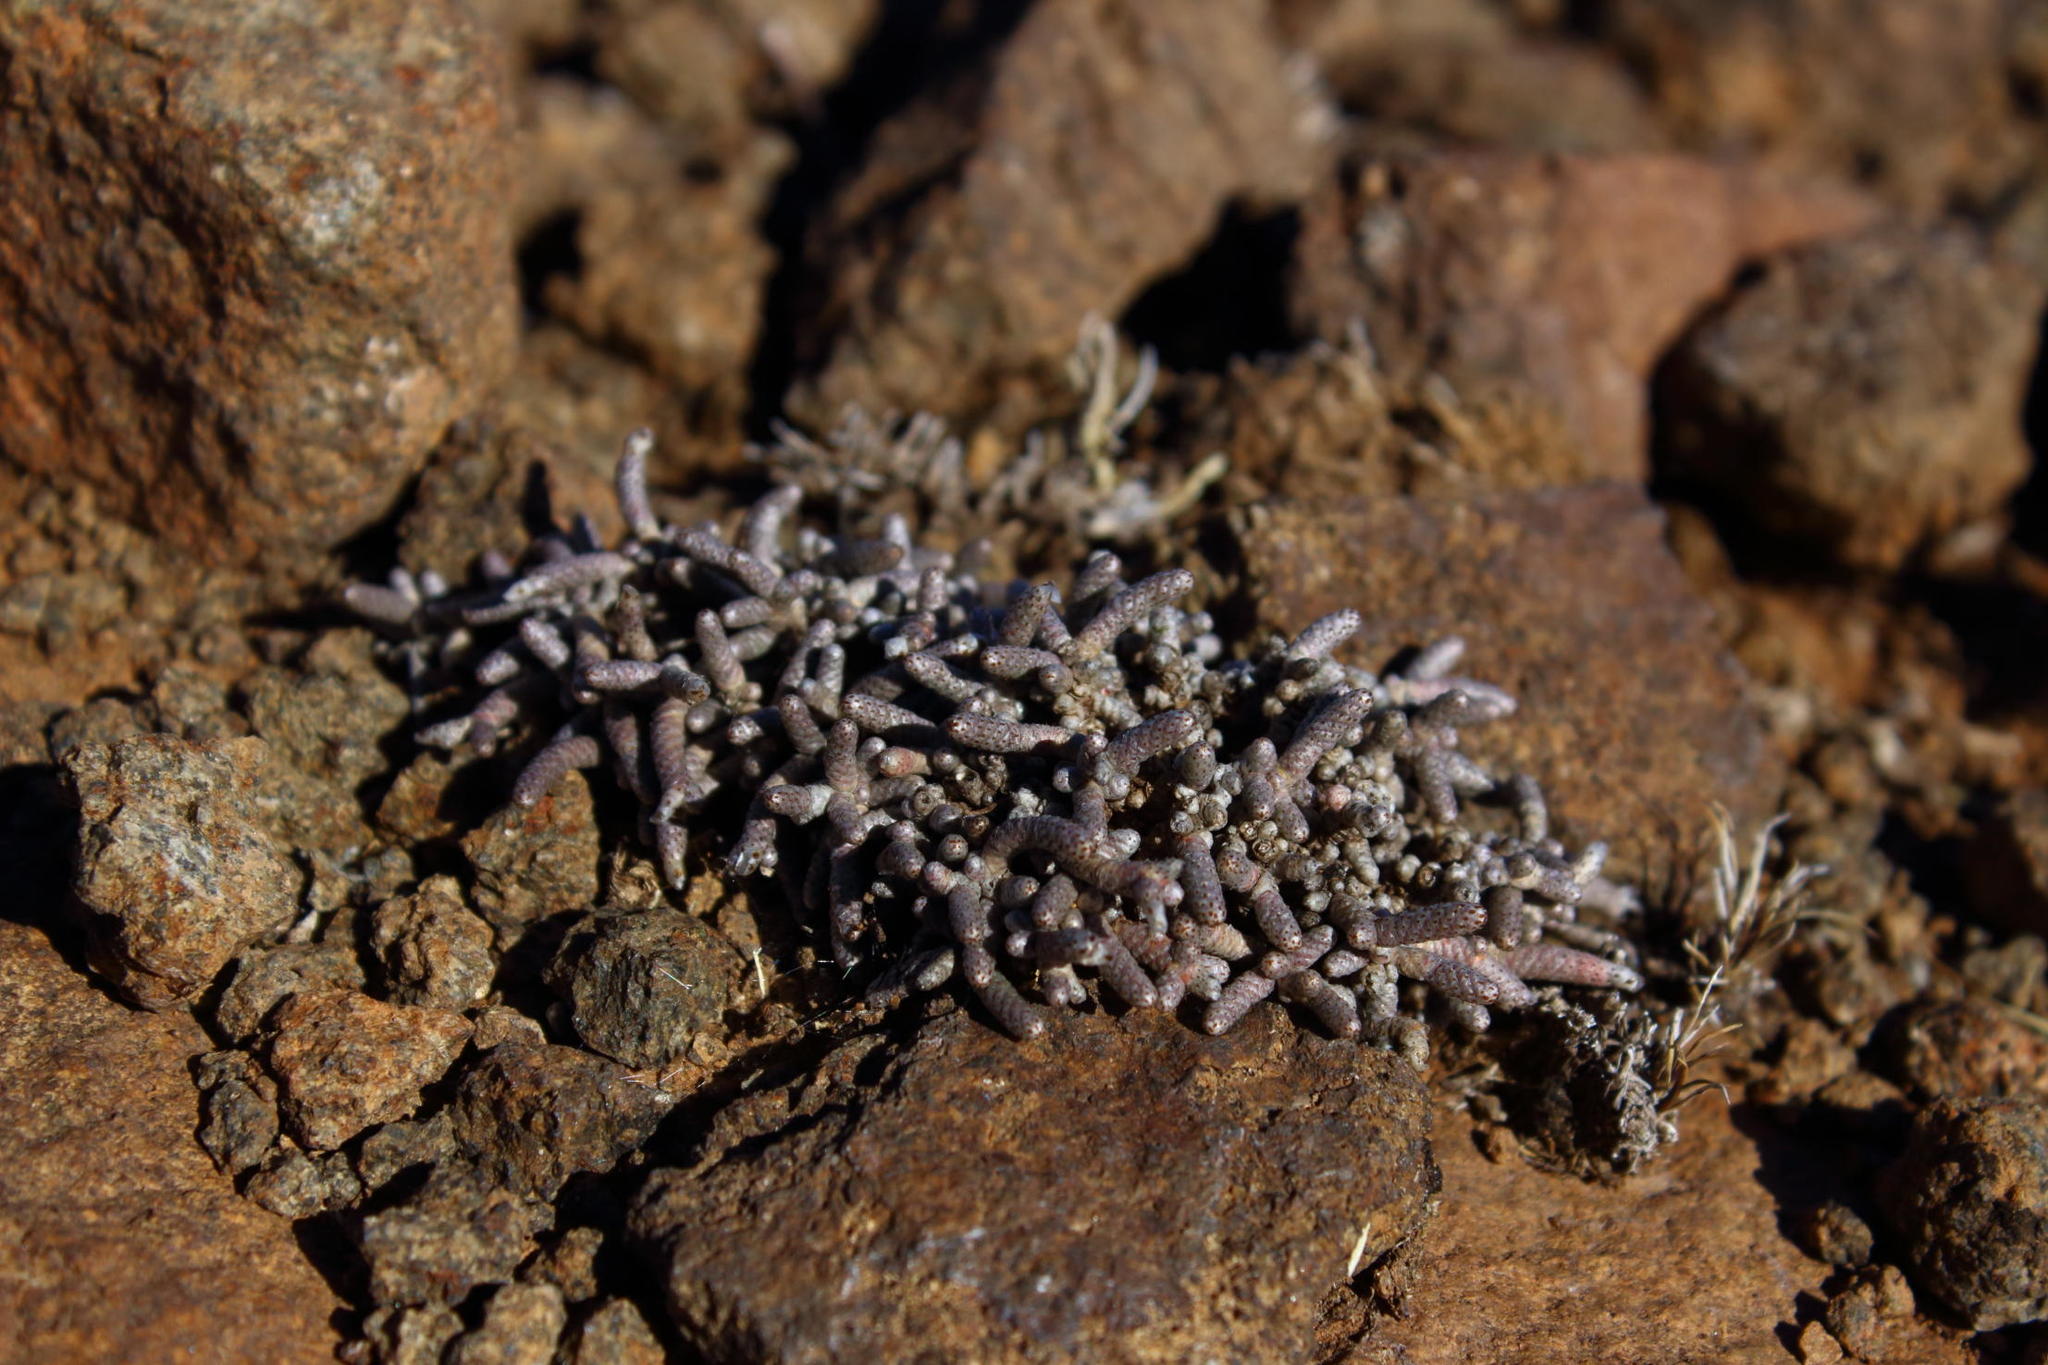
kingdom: Plantae
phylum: Tracheophyta
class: Magnoliopsida
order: Caryophyllales
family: Anacampserotaceae
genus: Avonia
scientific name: Avonia ustulata
